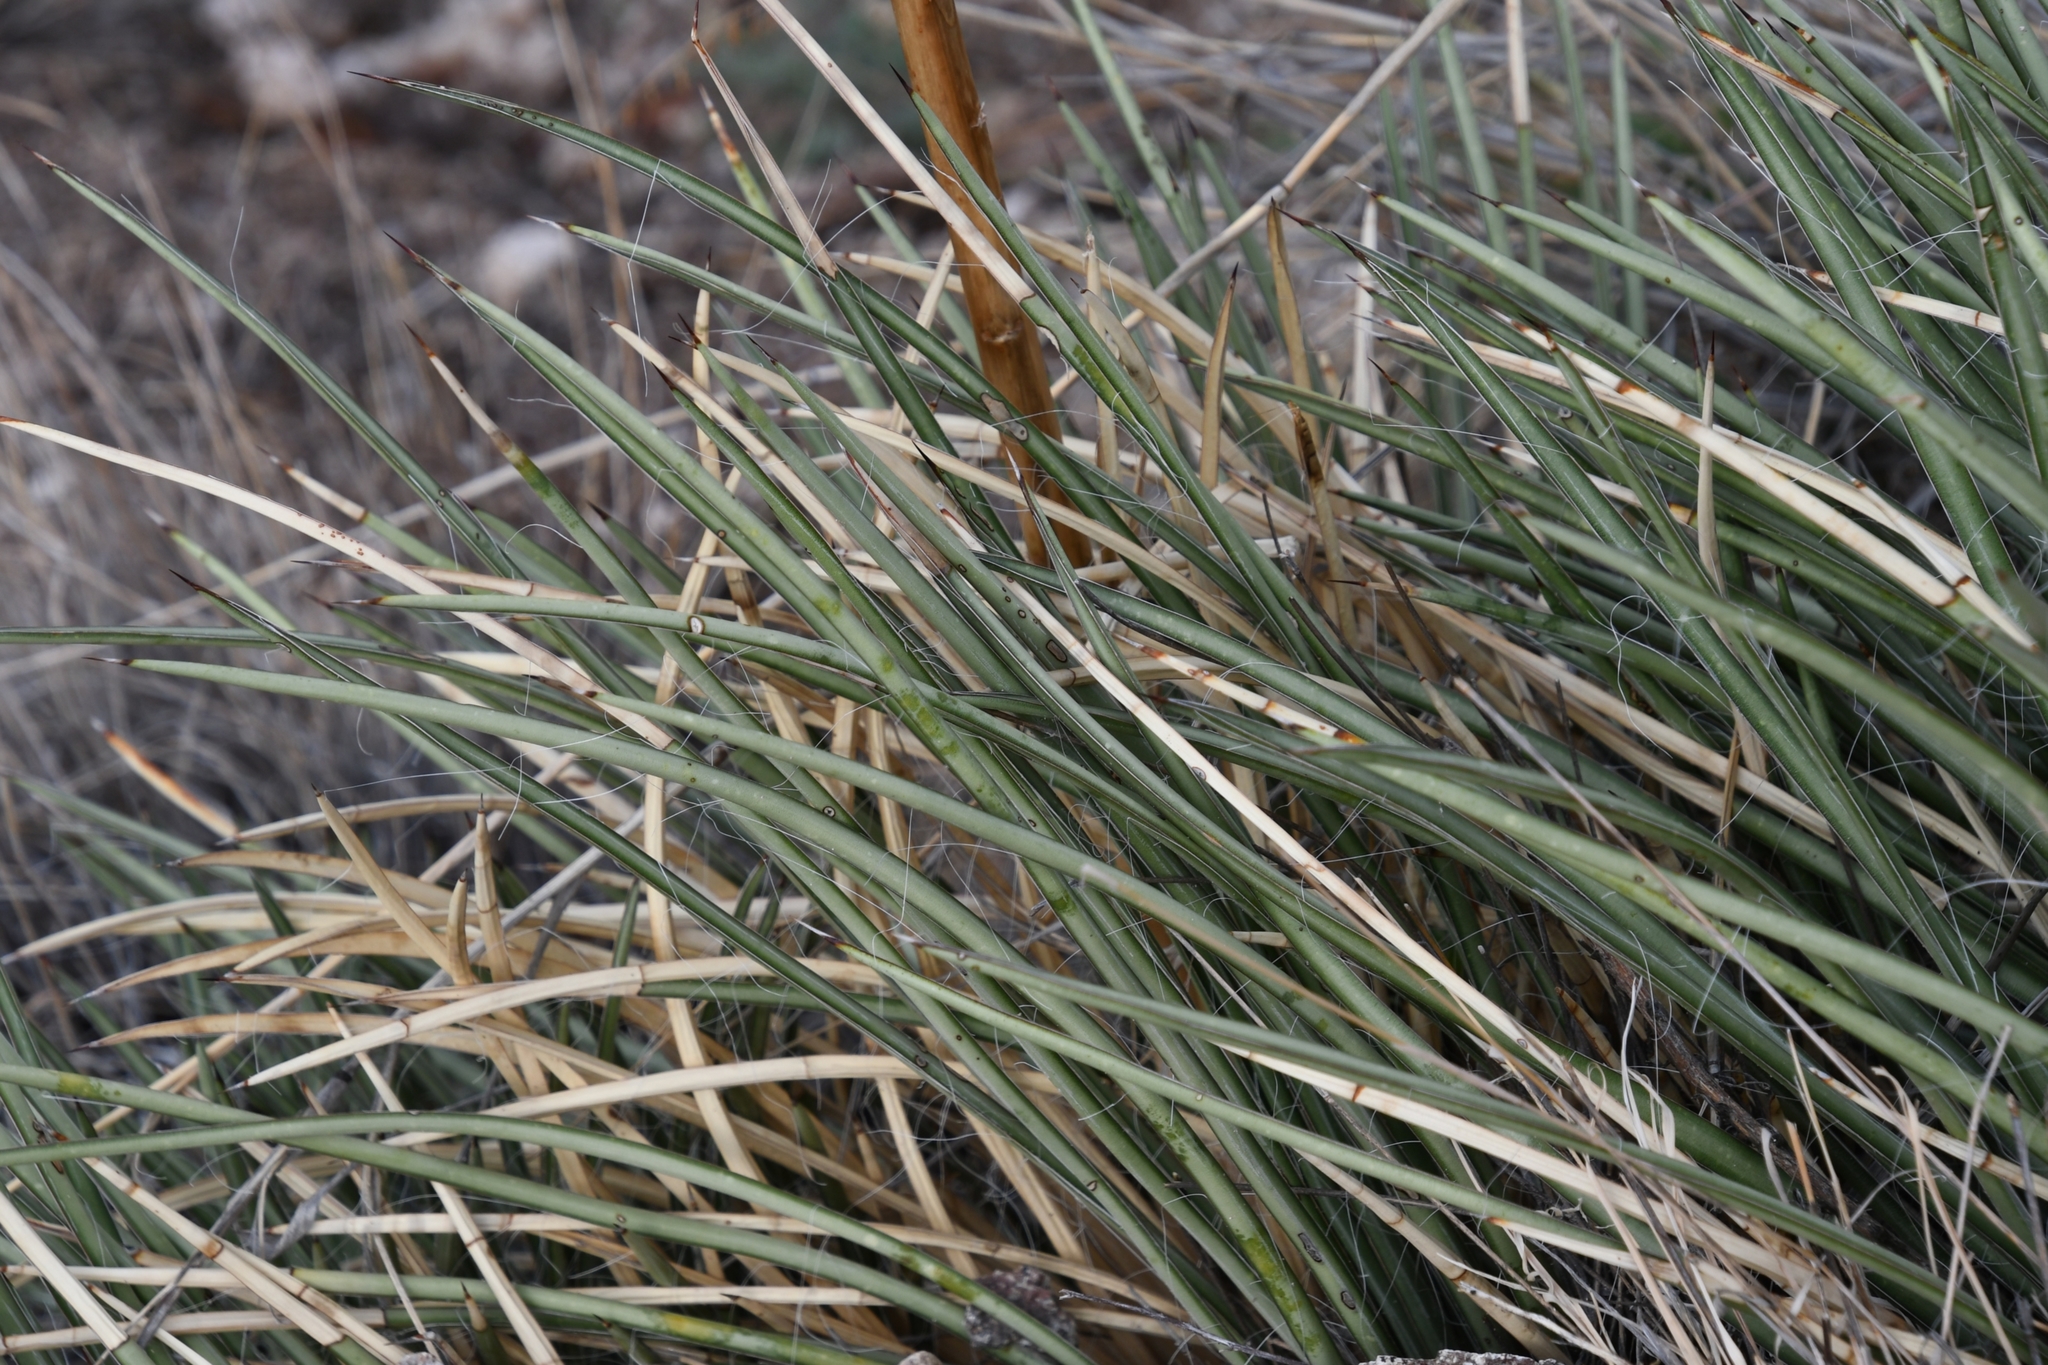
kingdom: Plantae
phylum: Tracheophyta
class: Liliopsida
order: Asparagales
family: Asparagaceae
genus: Agave
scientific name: Agave schottii
